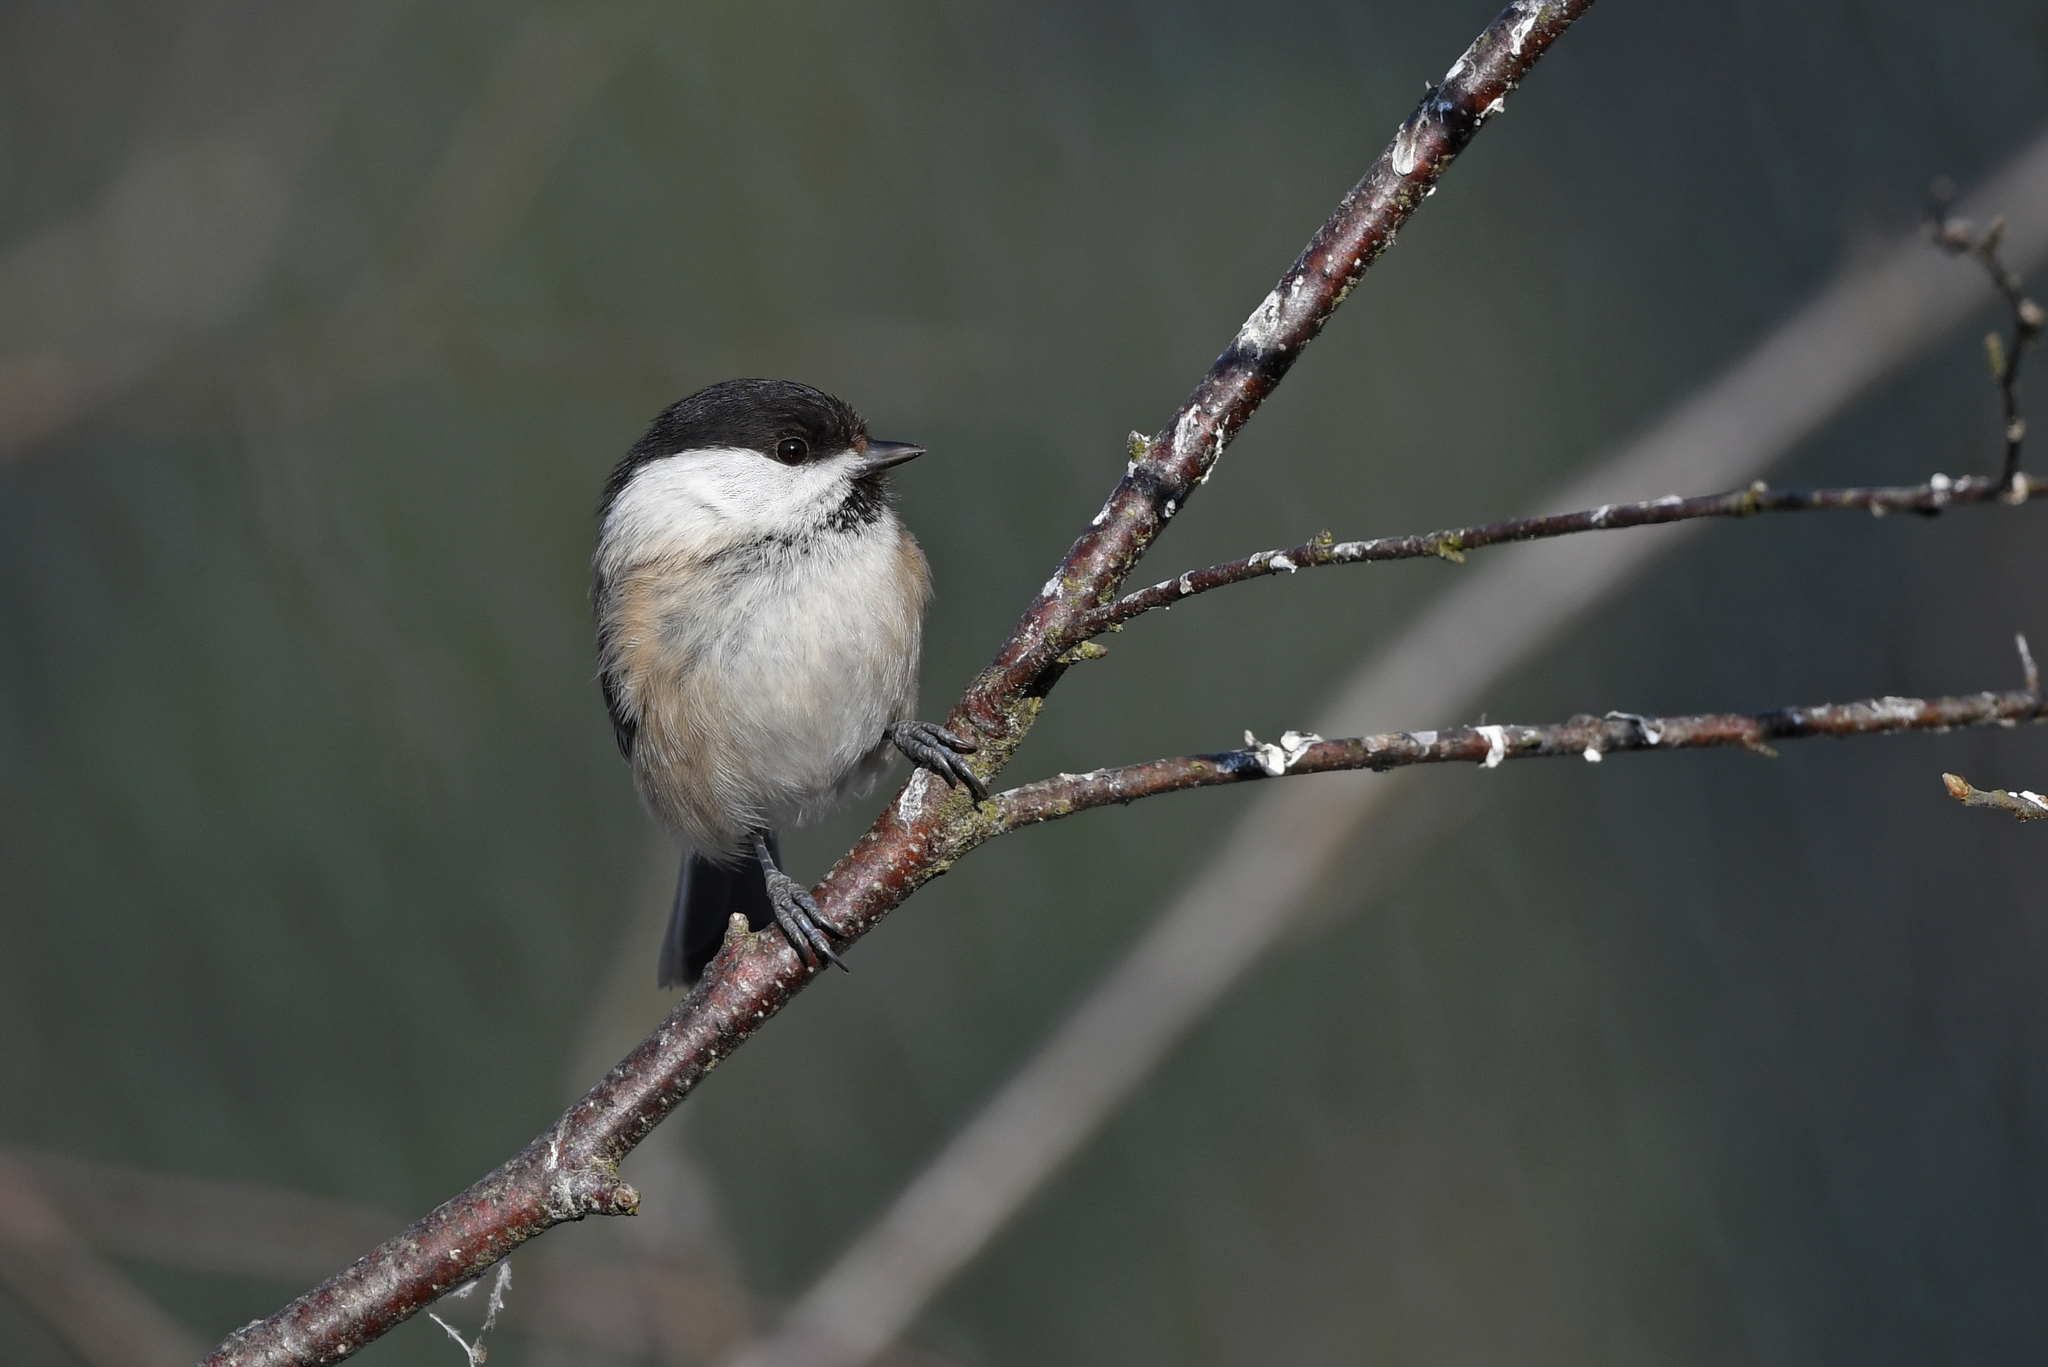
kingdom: Animalia
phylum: Chordata
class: Aves
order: Passeriformes
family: Paridae
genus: Poecile
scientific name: Poecile montanus
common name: Willow tit
